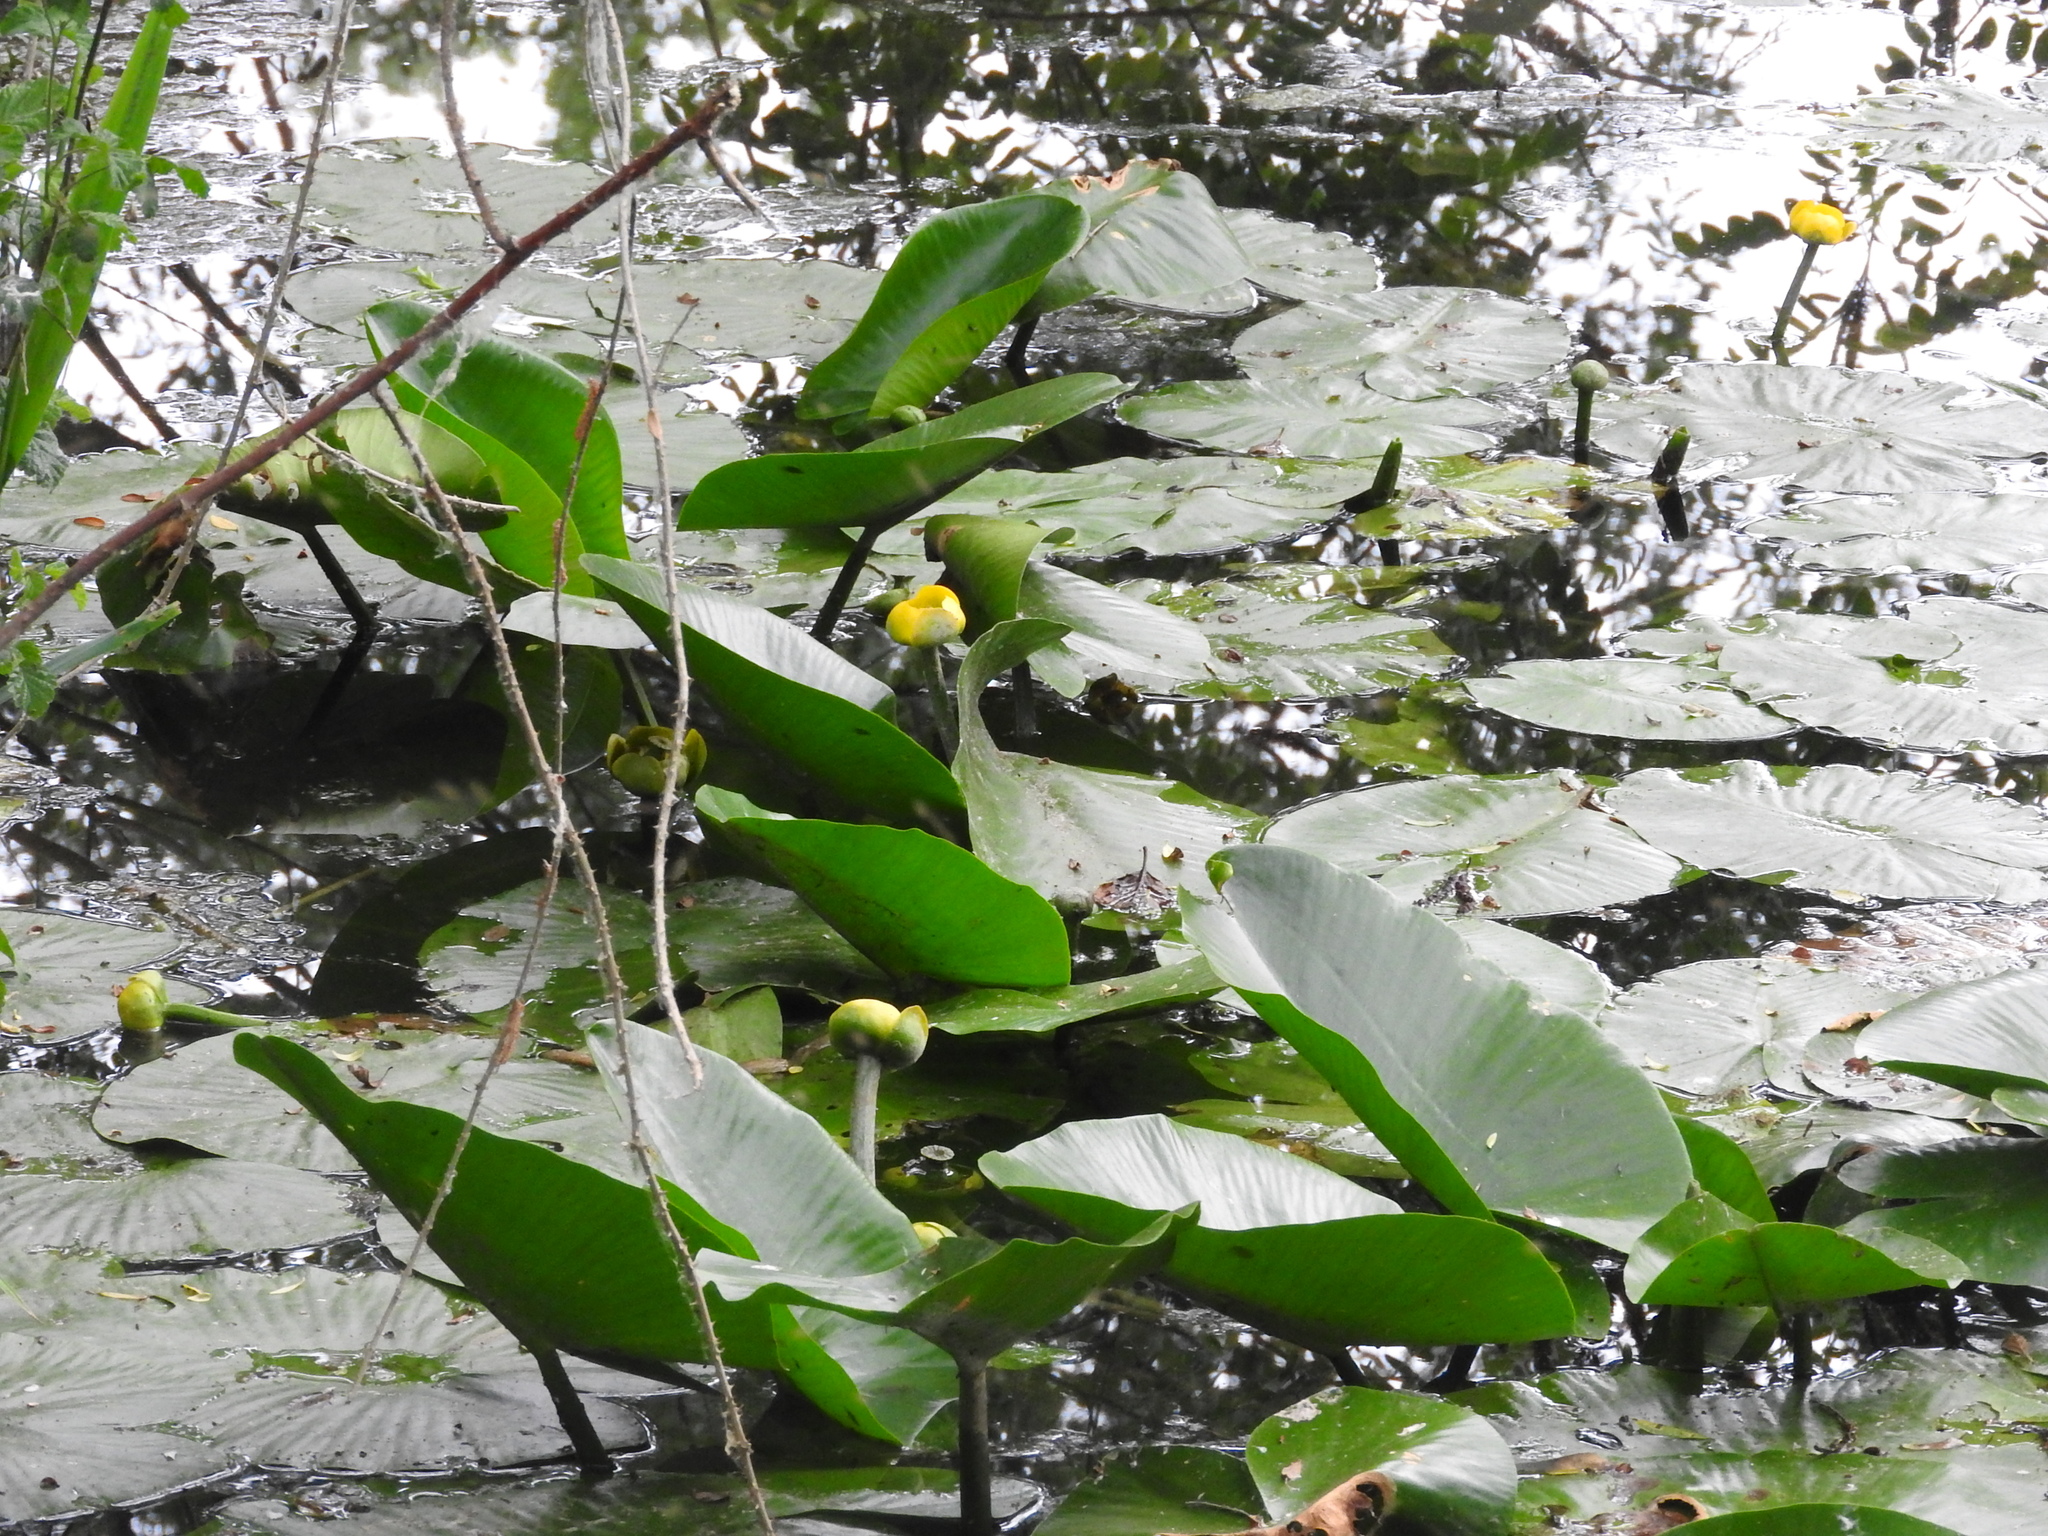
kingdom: Plantae
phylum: Tracheophyta
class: Magnoliopsida
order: Nymphaeales
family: Nymphaeaceae
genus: Nuphar
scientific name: Nuphar lutea
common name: Yellow water-lily
